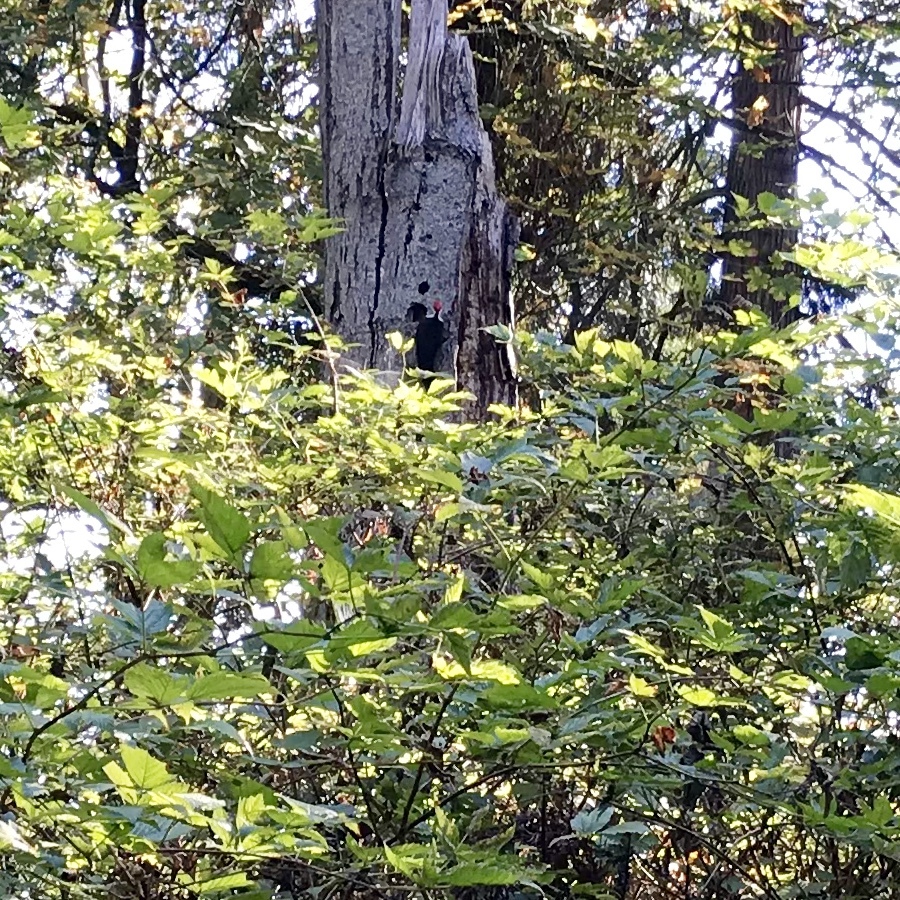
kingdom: Animalia
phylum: Chordata
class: Aves
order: Piciformes
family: Picidae
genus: Dryocopus
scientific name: Dryocopus pileatus
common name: Pileated woodpecker
